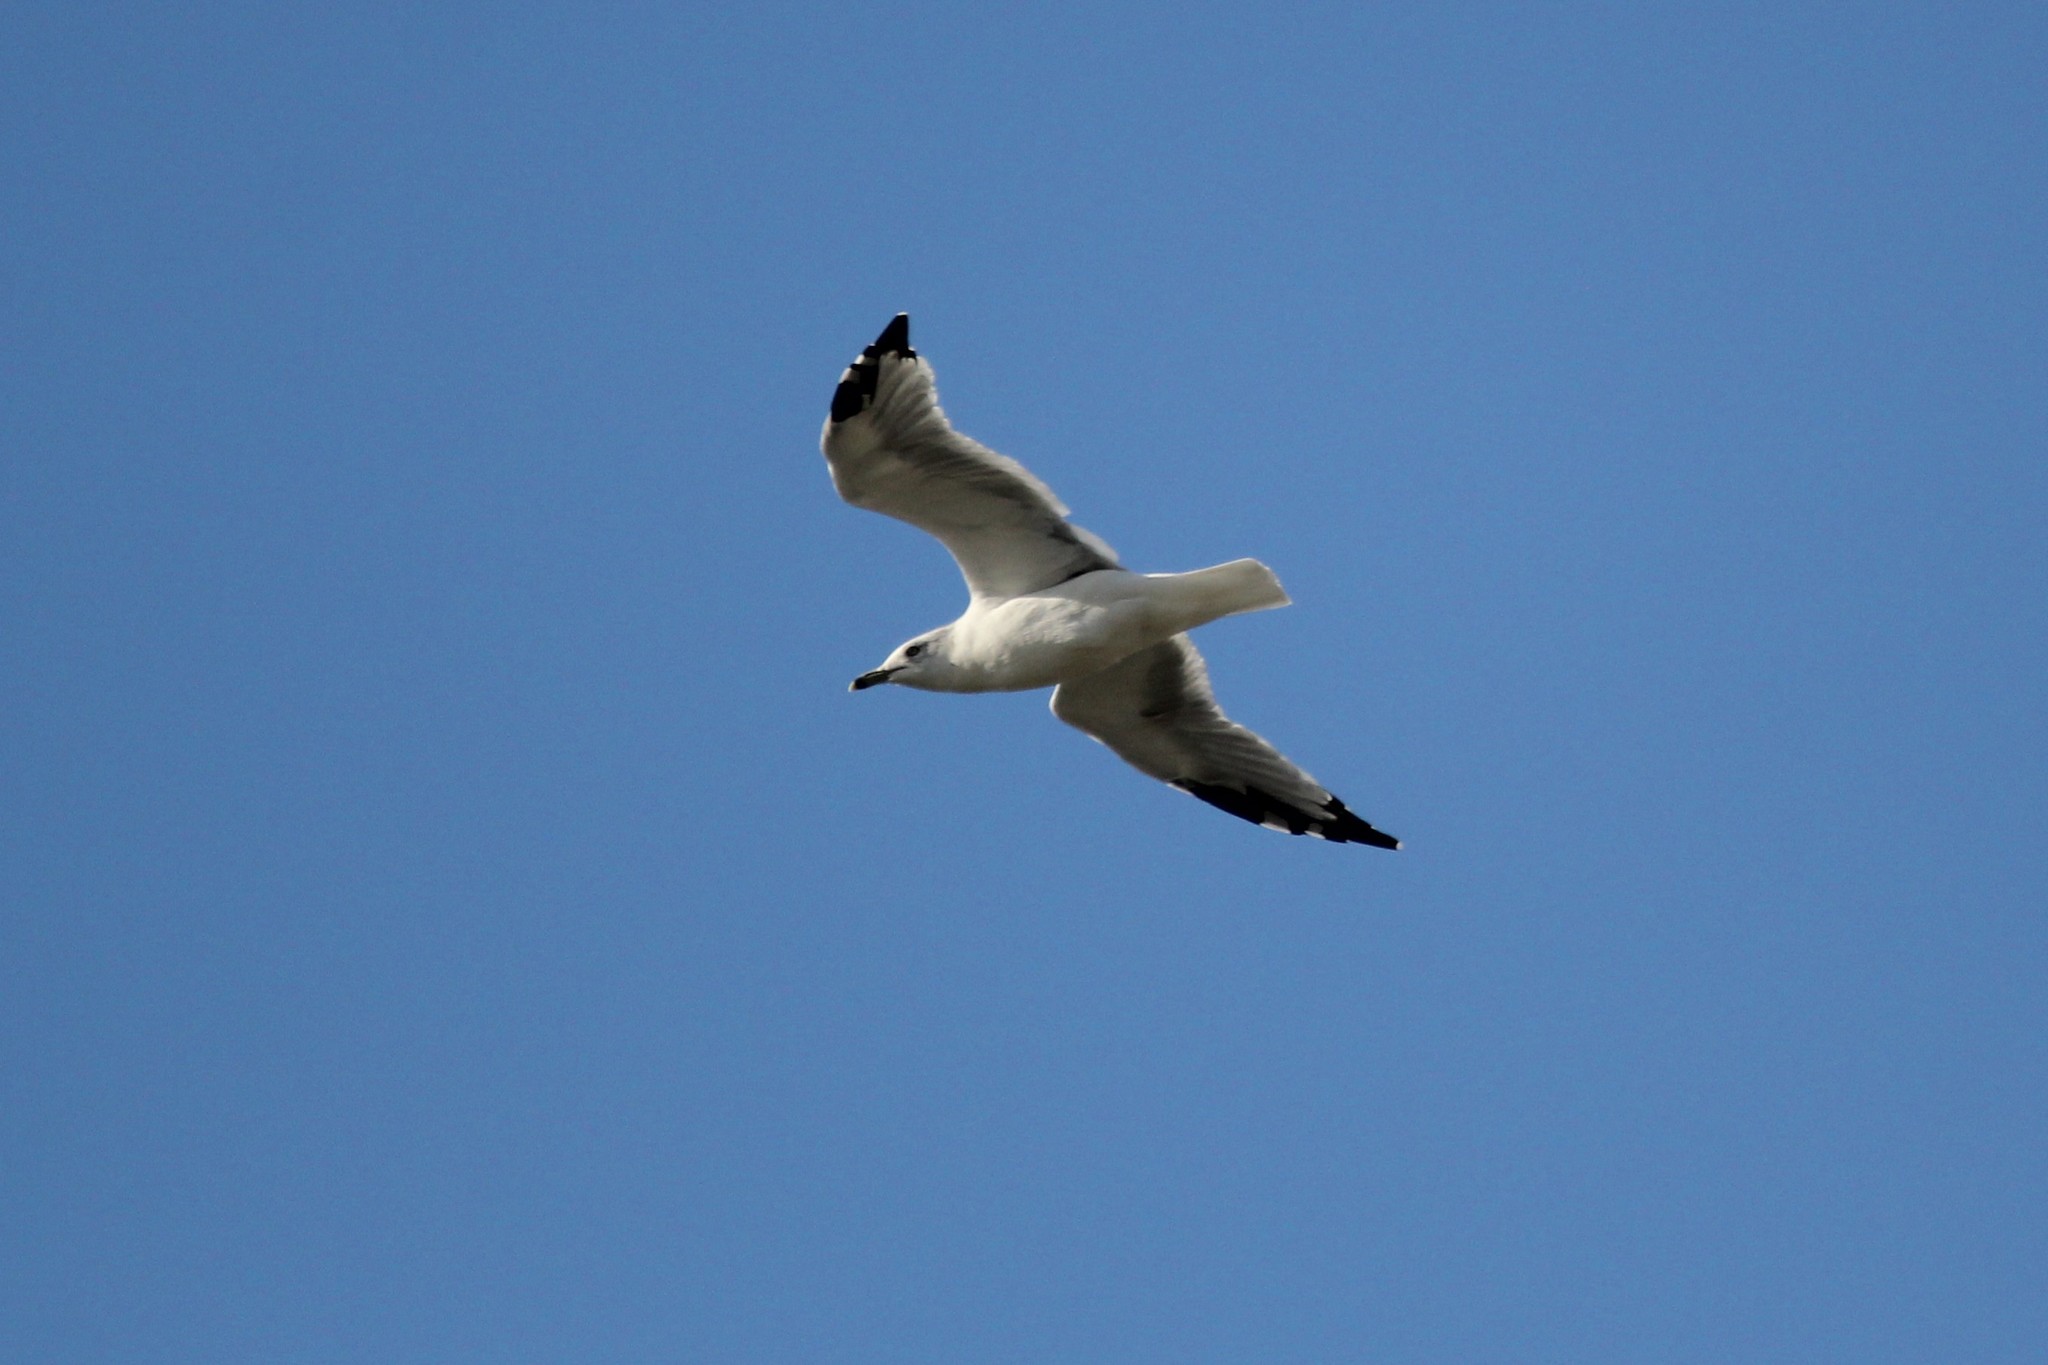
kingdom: Animalia
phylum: Chordata
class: Aves
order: Charadriiformes
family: Laridae
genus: Larus
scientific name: Larus delawarensis
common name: Ring-billed gull
